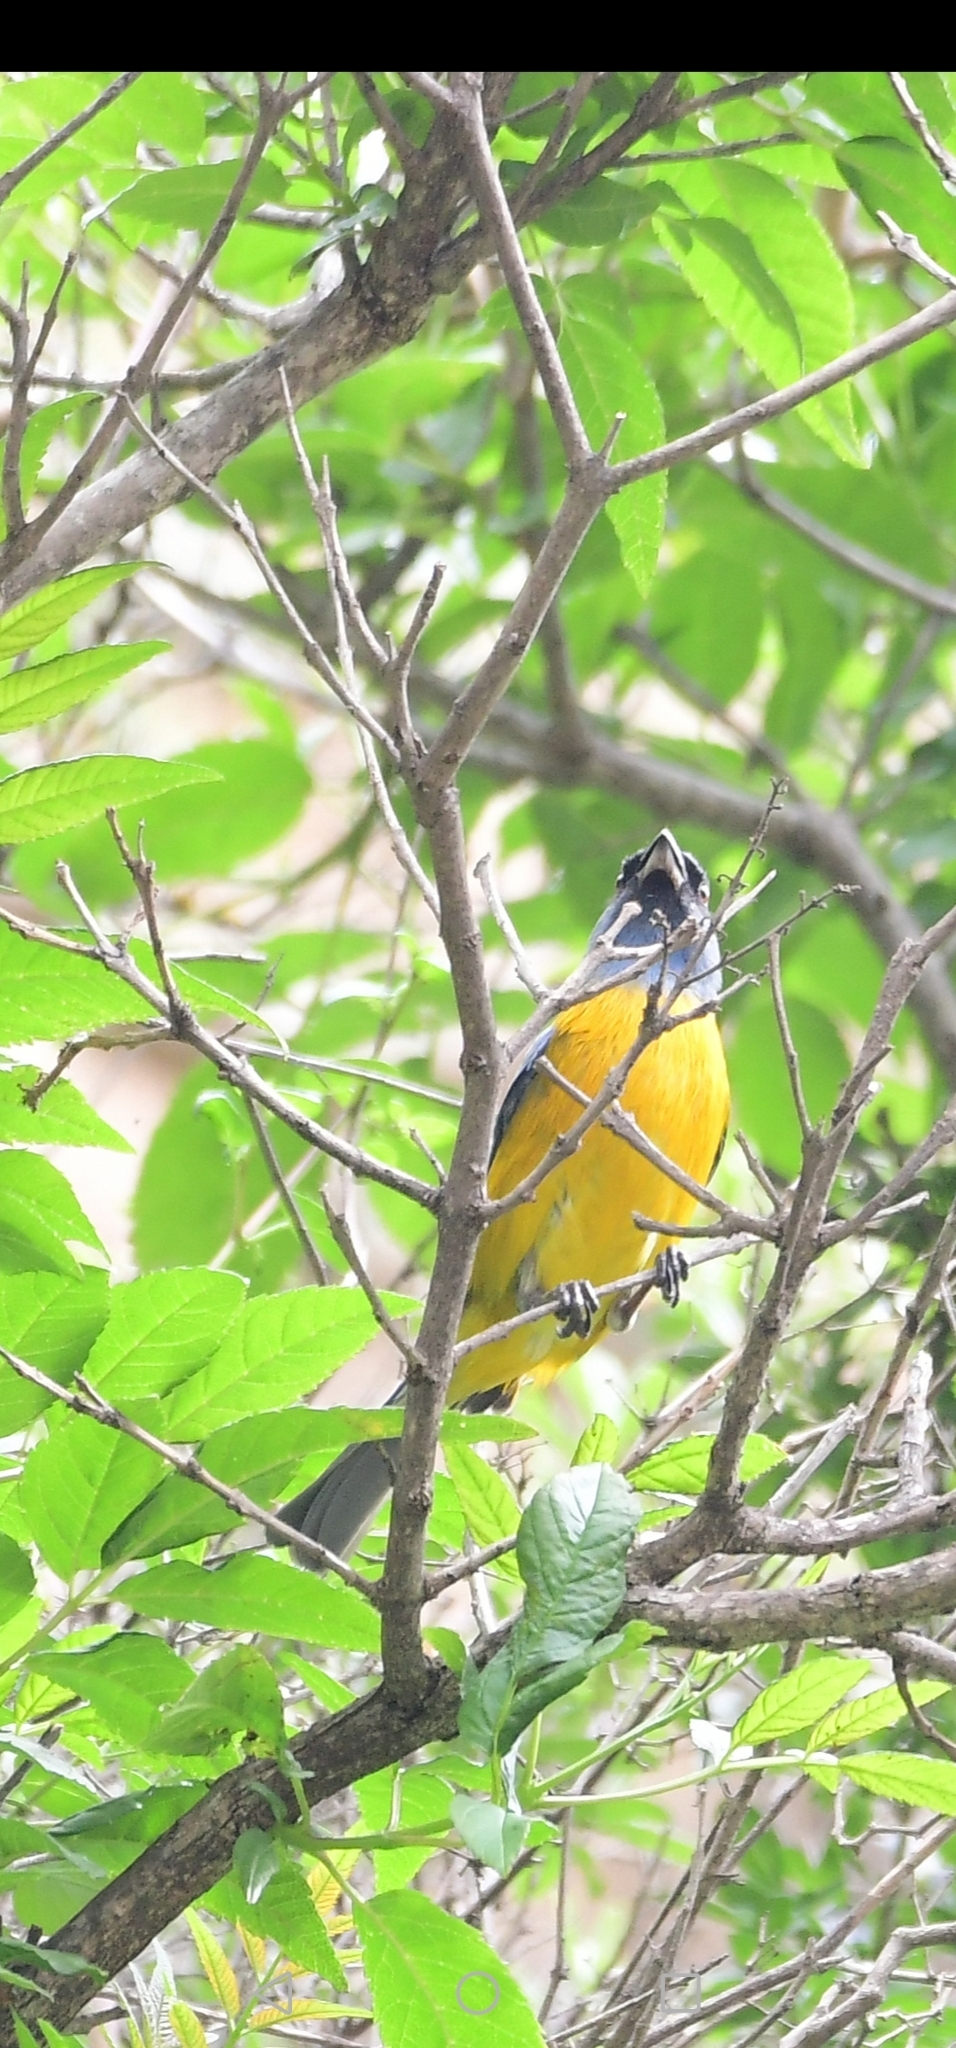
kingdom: Animalia
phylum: Chordata
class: Aves
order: Passeriformes
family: Thraupidae
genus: Rauenia
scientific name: Rauenia bonariensis
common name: Blue-and-yellow tanager
